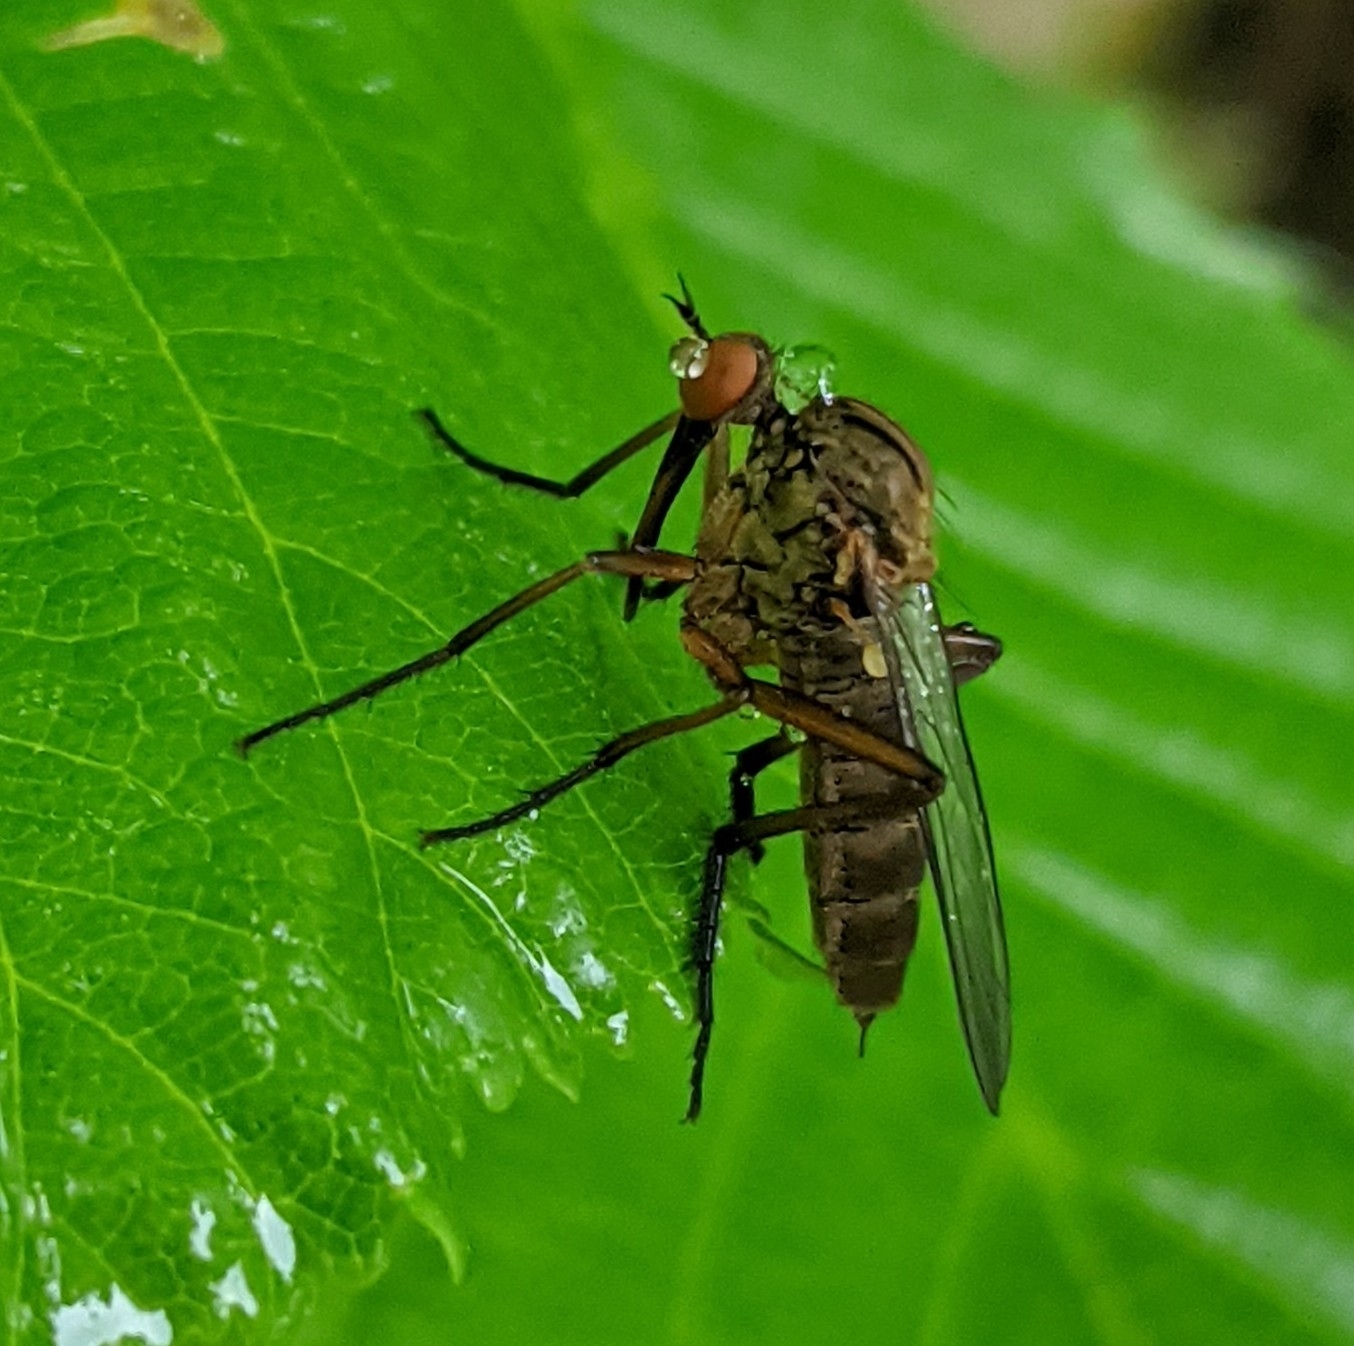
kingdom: Animalia
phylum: Arthropoda
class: Insecta
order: Diptera
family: Empididae
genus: Empis
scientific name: Empis livida
